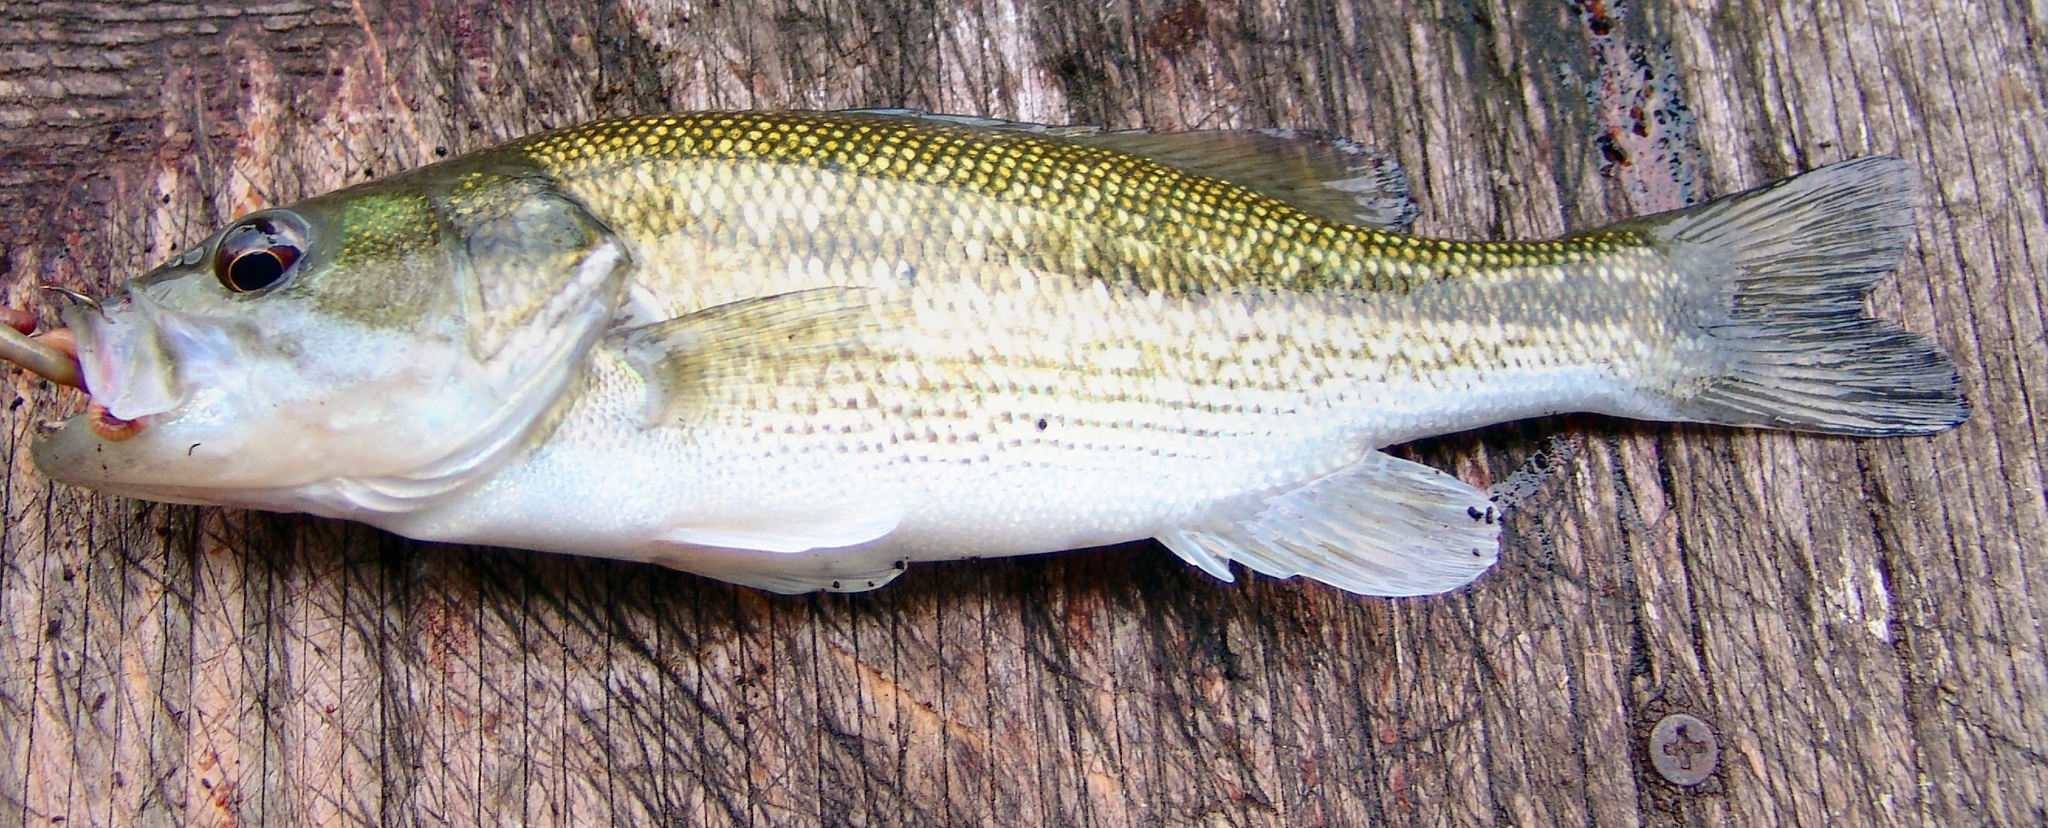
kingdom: Animalia
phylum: Chordata
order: Perciformes
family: Centrarchidae
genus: Micropterus
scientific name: Micropterus punctulatus
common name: Spotted bass
